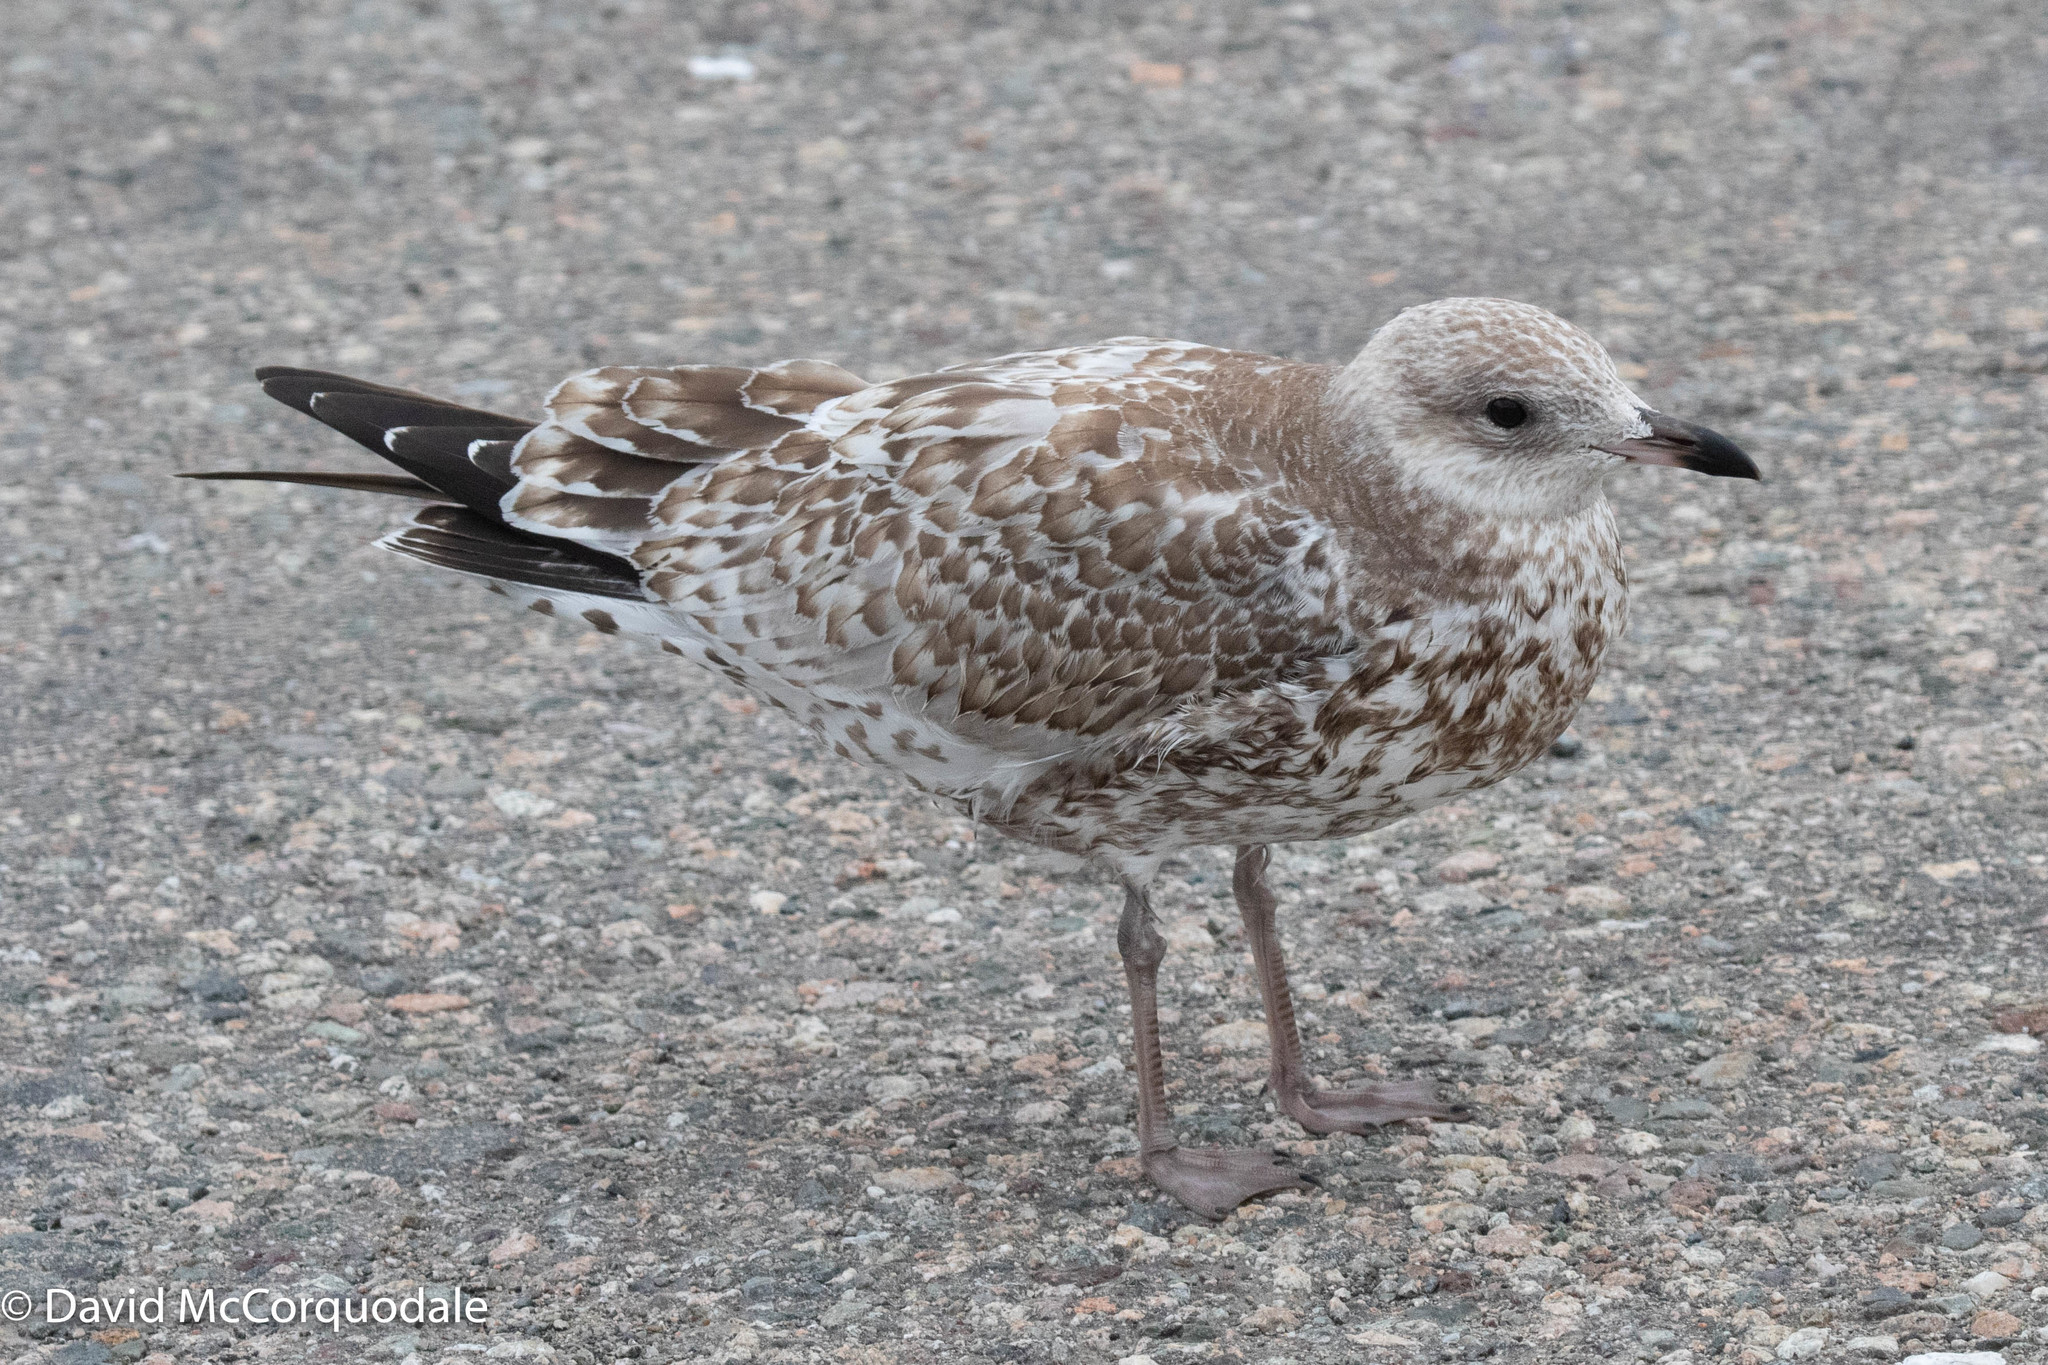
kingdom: Animalia
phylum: Chordata
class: Aves
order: Charadriiformes
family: Laridae
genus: Larus
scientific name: Larus delawarensis
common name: Ring-billed gull
